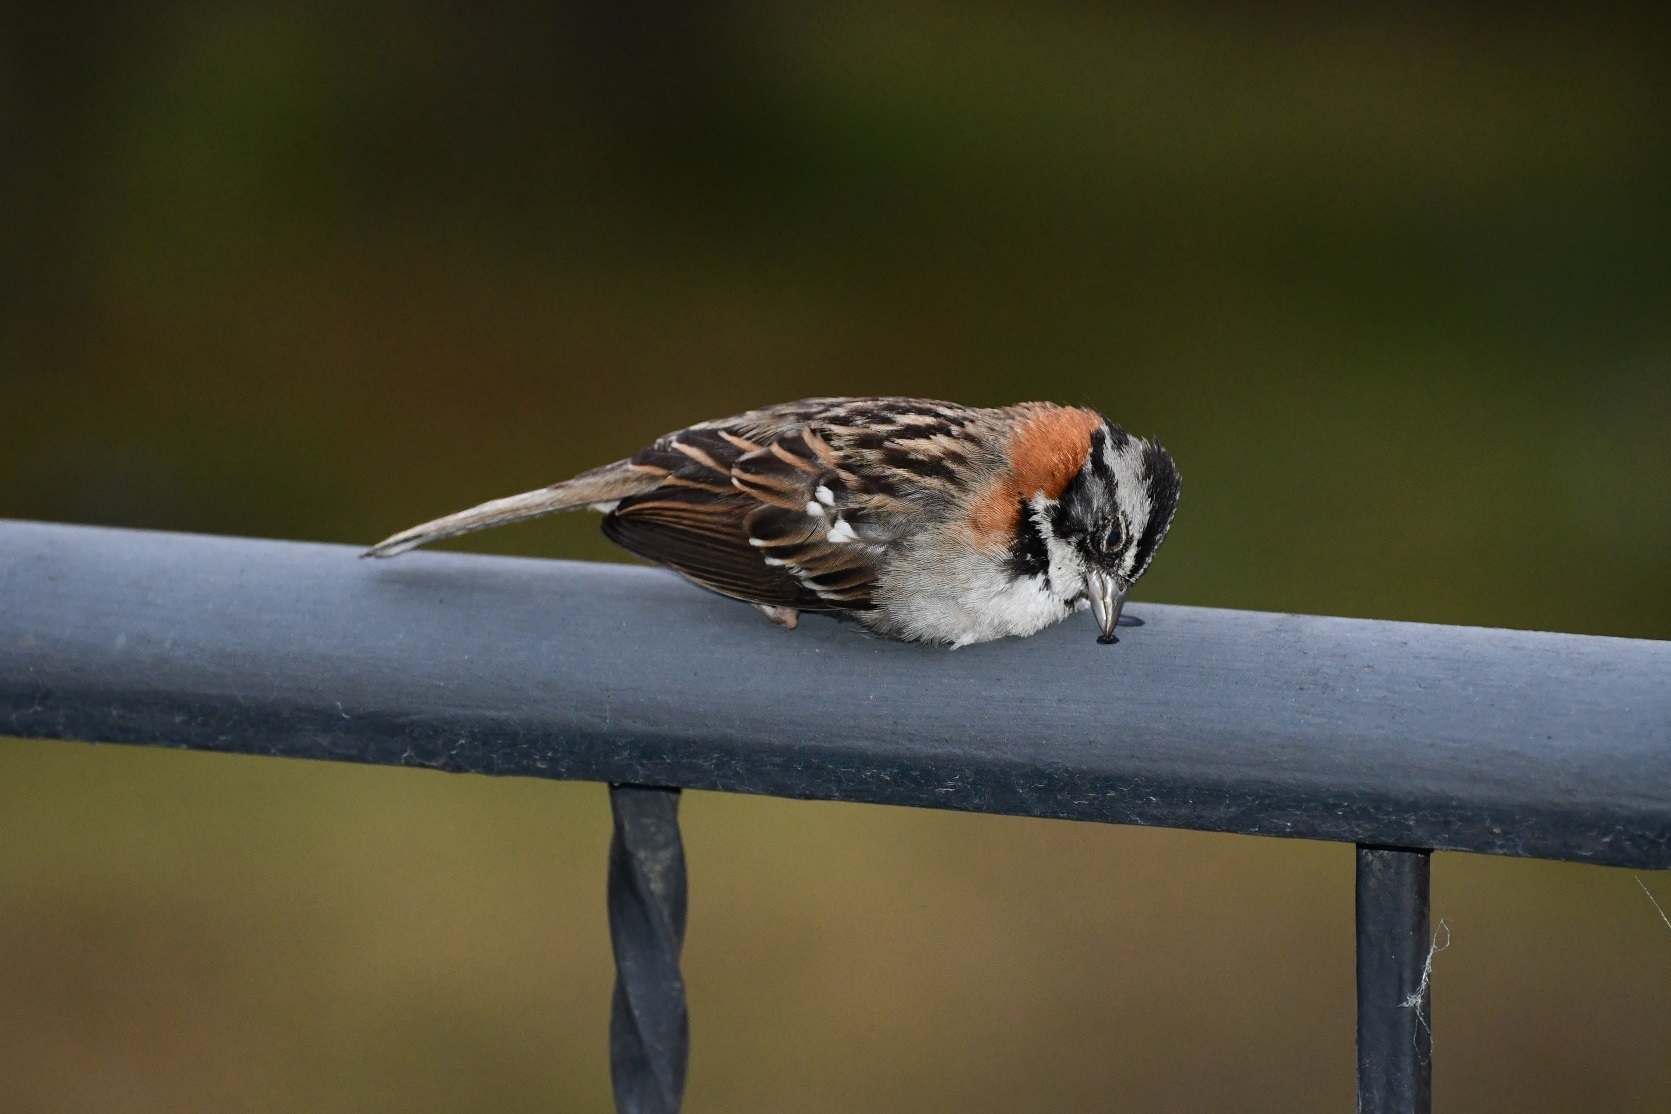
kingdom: Animalia
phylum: Chordata
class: Aves
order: Passeriformes
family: Passerellidae
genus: Zonotrichia
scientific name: Zonotrichia capensis
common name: Rufous-collared sparrow
